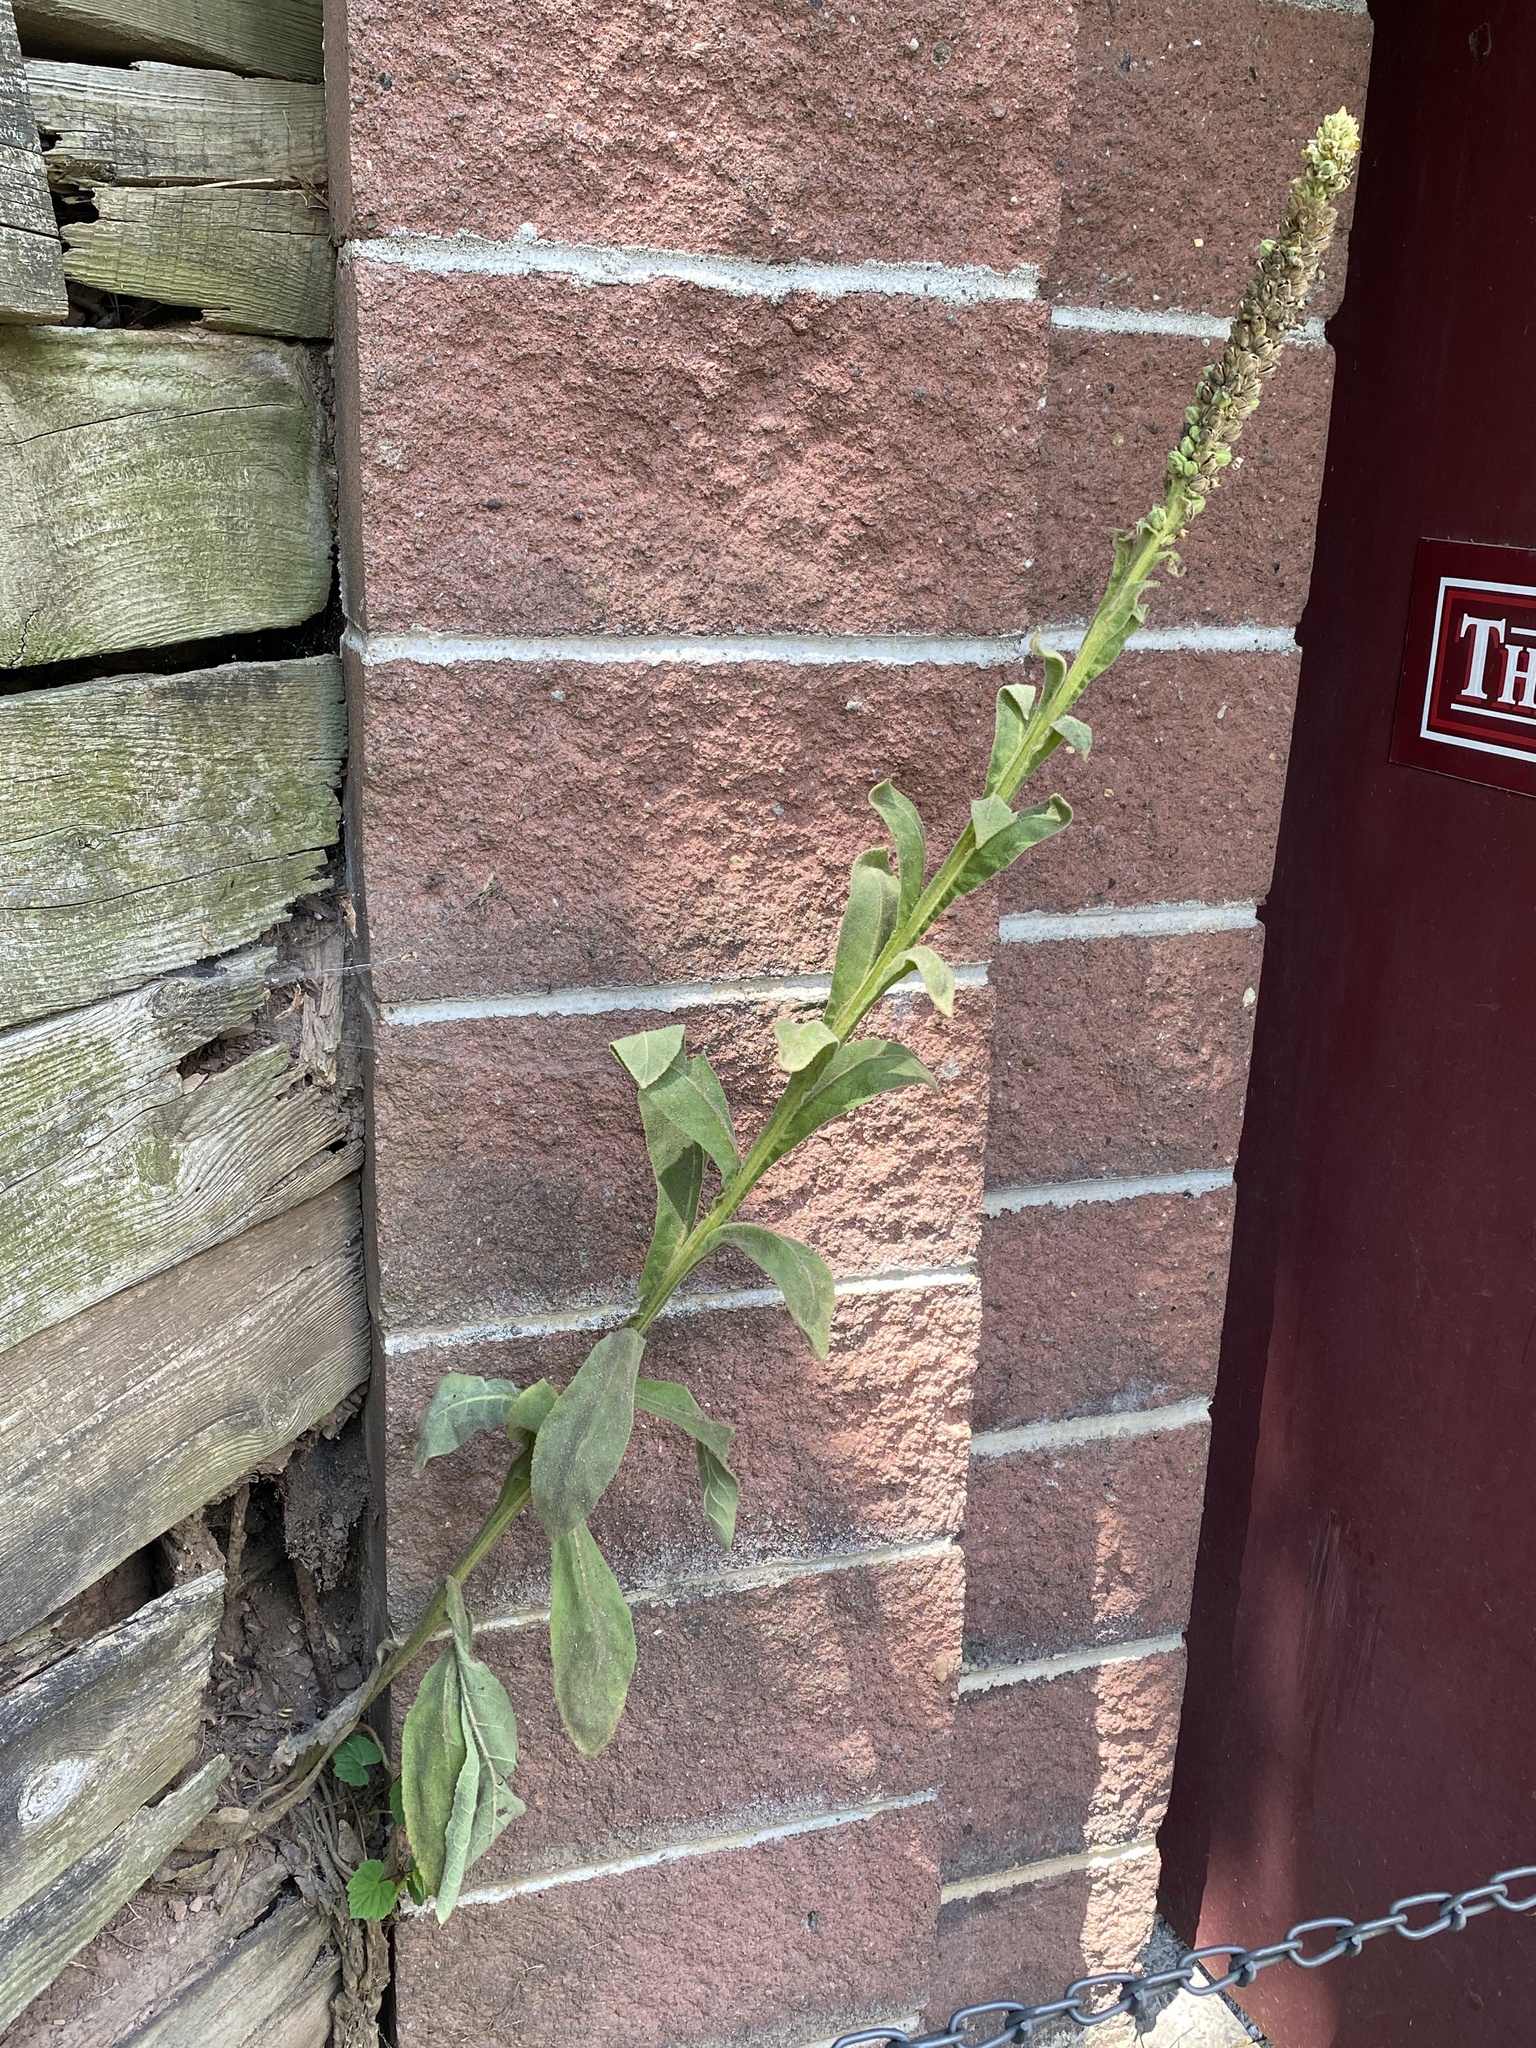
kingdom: Plantae
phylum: Tracheophyta
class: Magnoliopsida
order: Lamiales
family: Scrophulariaceae
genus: Verbascum
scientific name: Verbascum thapsus
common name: Common mullein
